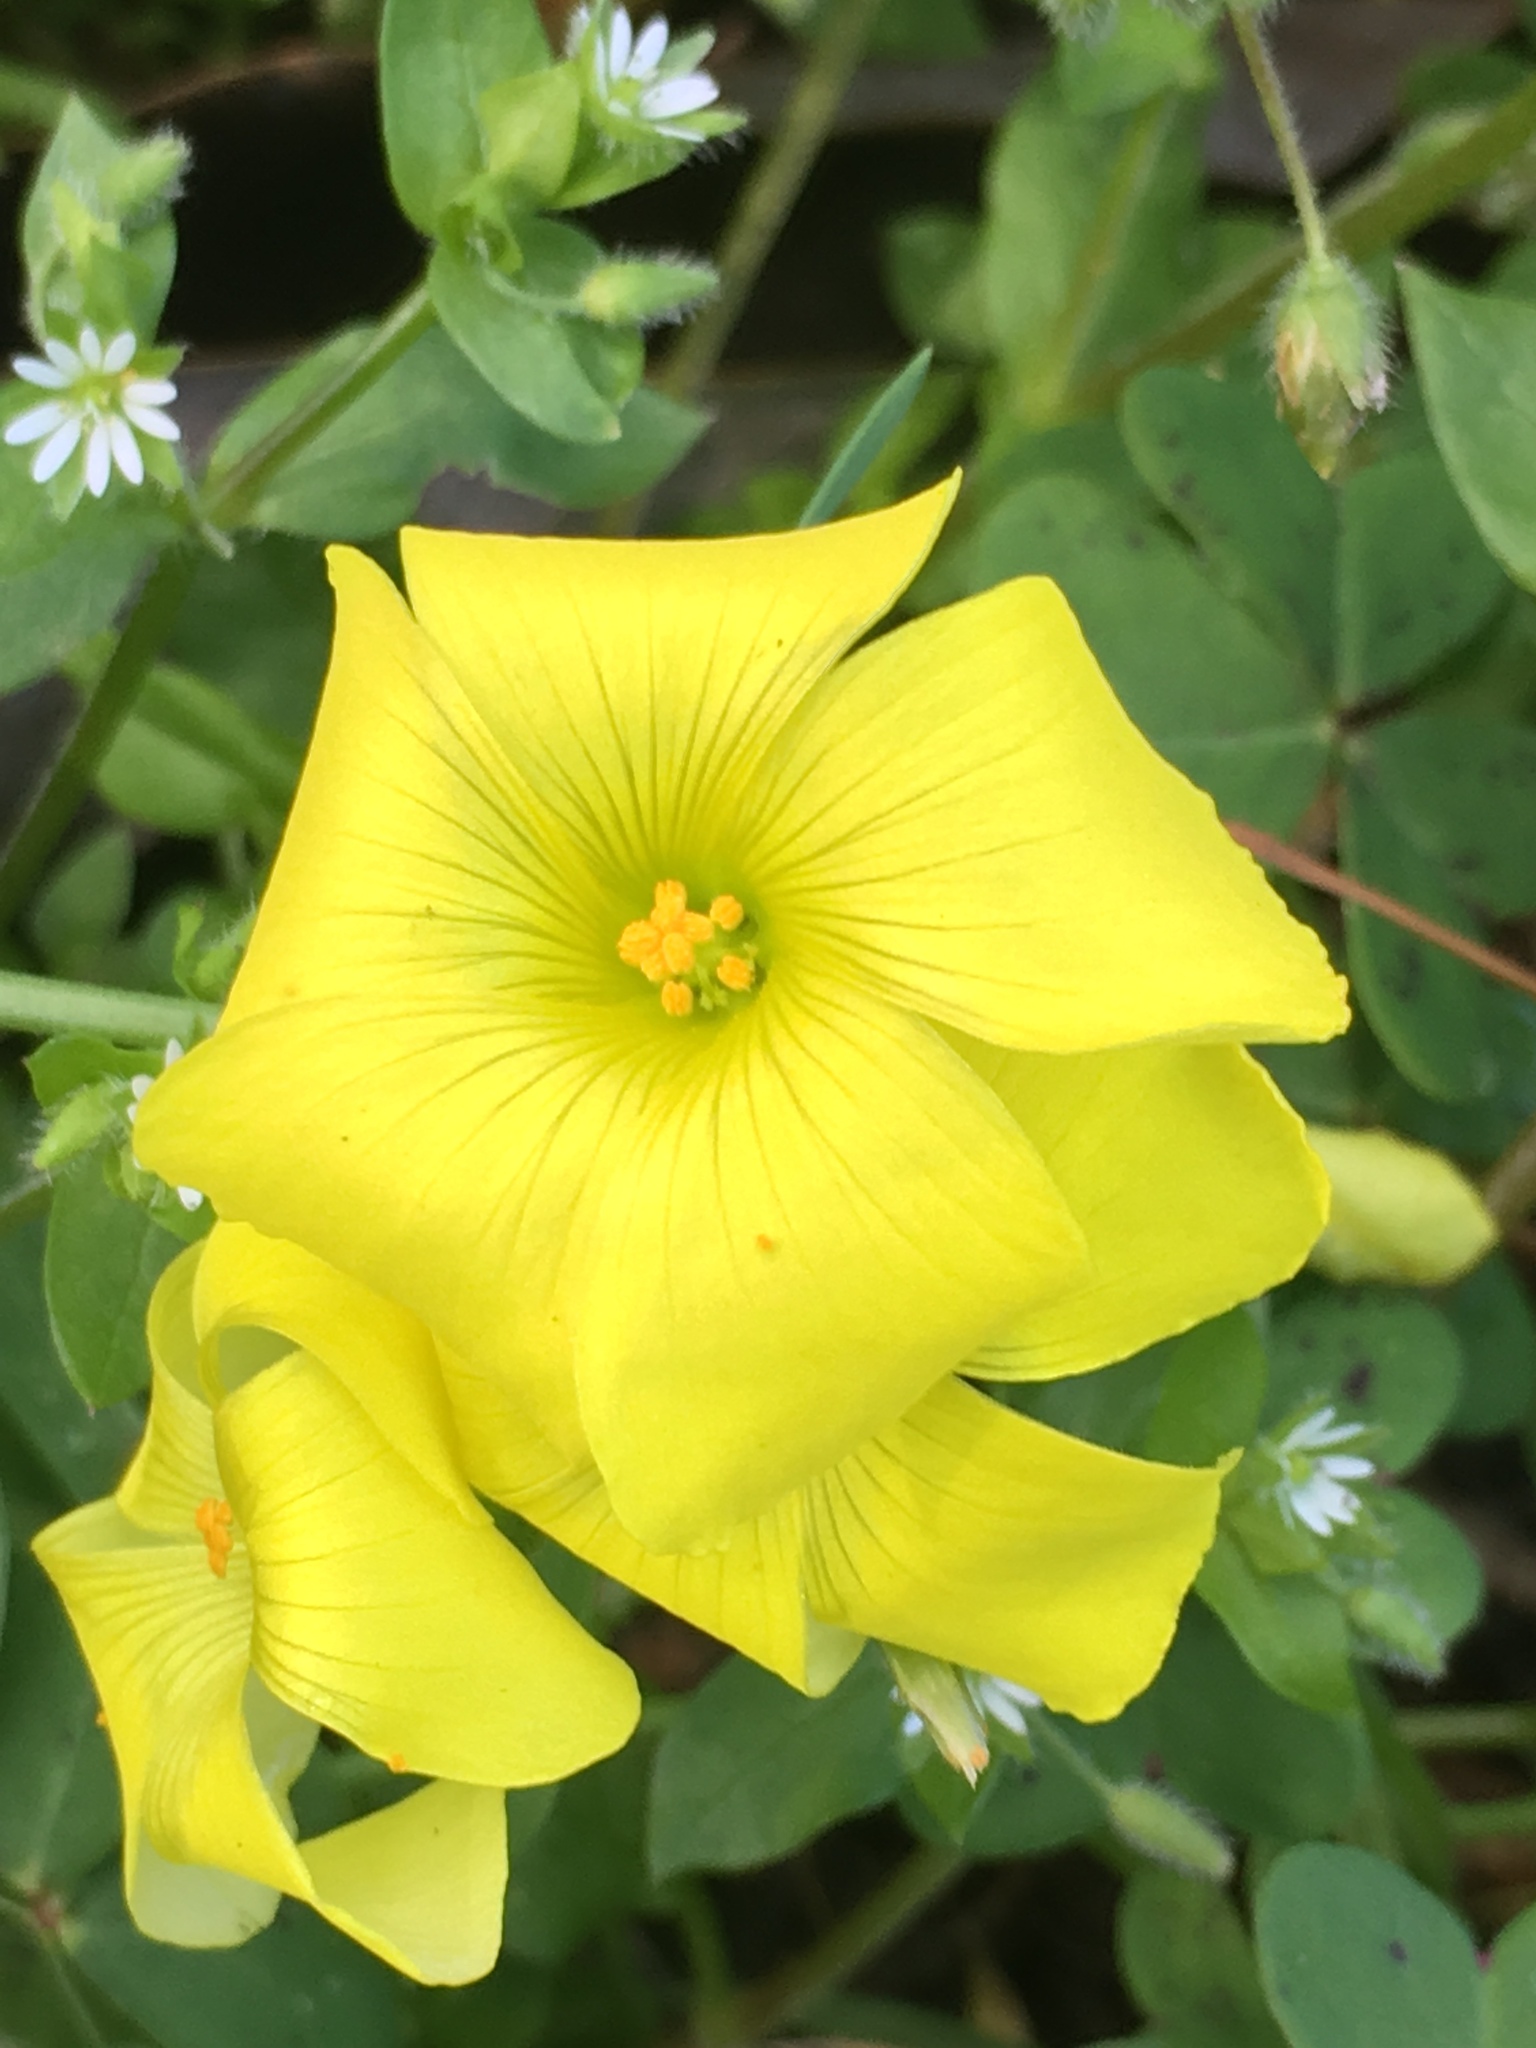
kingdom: Plantae
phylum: Tracheophyta
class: Magnoliopsida
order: Oxalidales
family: Oxalidaceae
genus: Oxalis
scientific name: Oxalis pes-caprae
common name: Bermuda-buttercup
